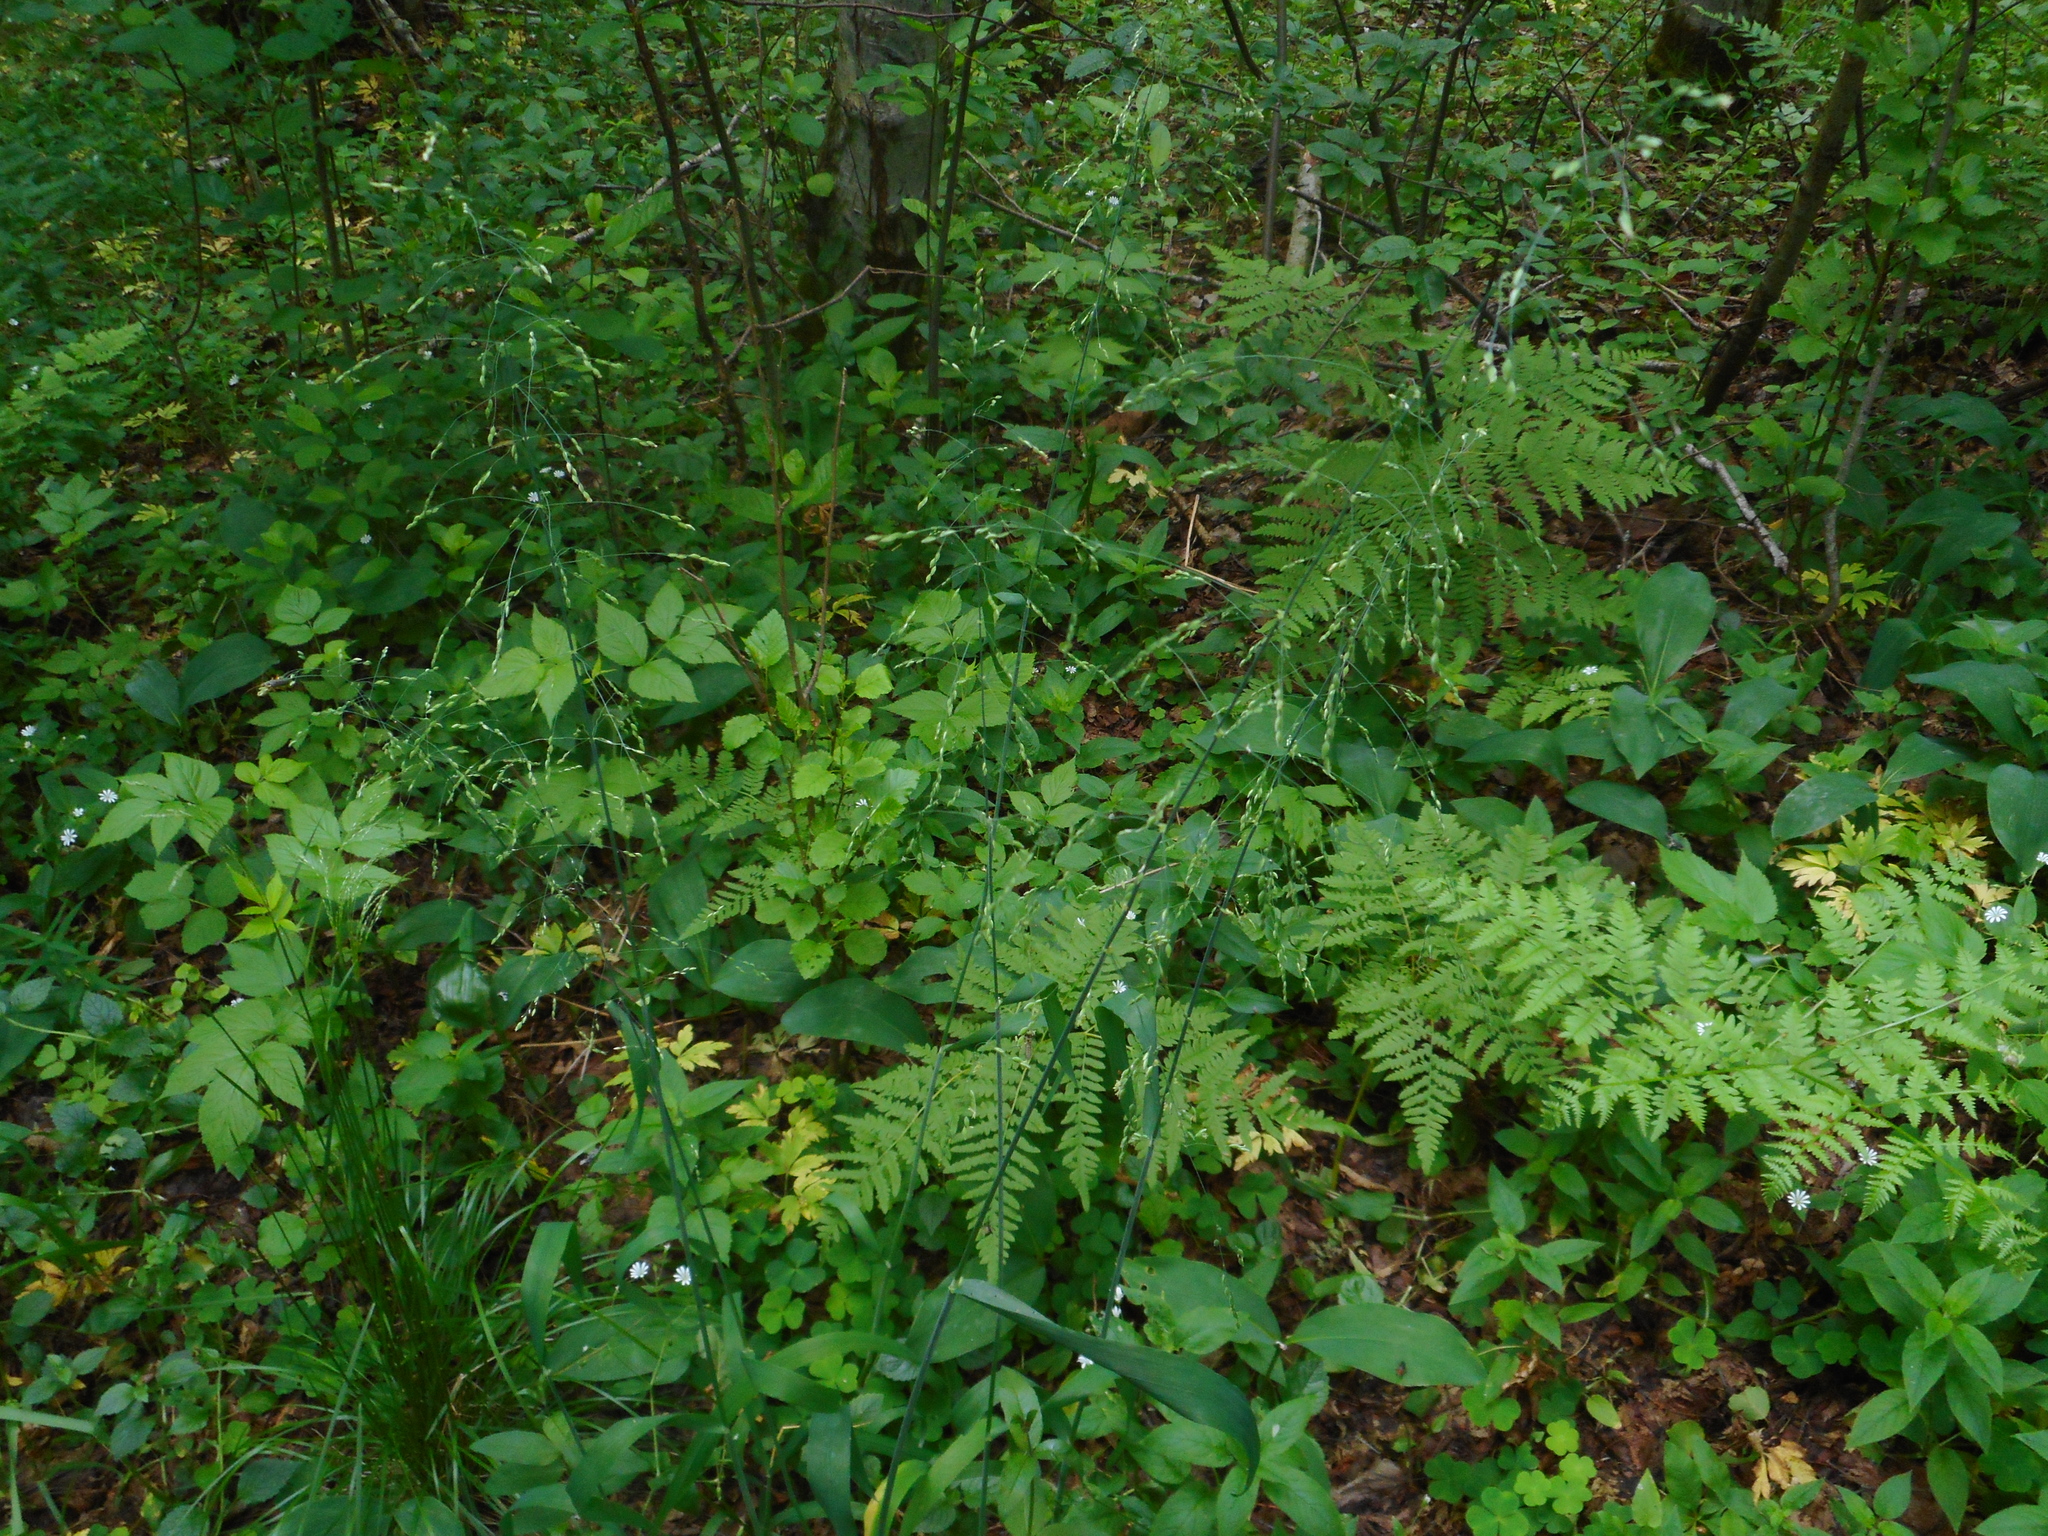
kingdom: Plantae
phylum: Tracheophyta
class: Liliopsida
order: Poales
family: Poaceae
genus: Milium
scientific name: Milium effusum
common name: Wood millet
